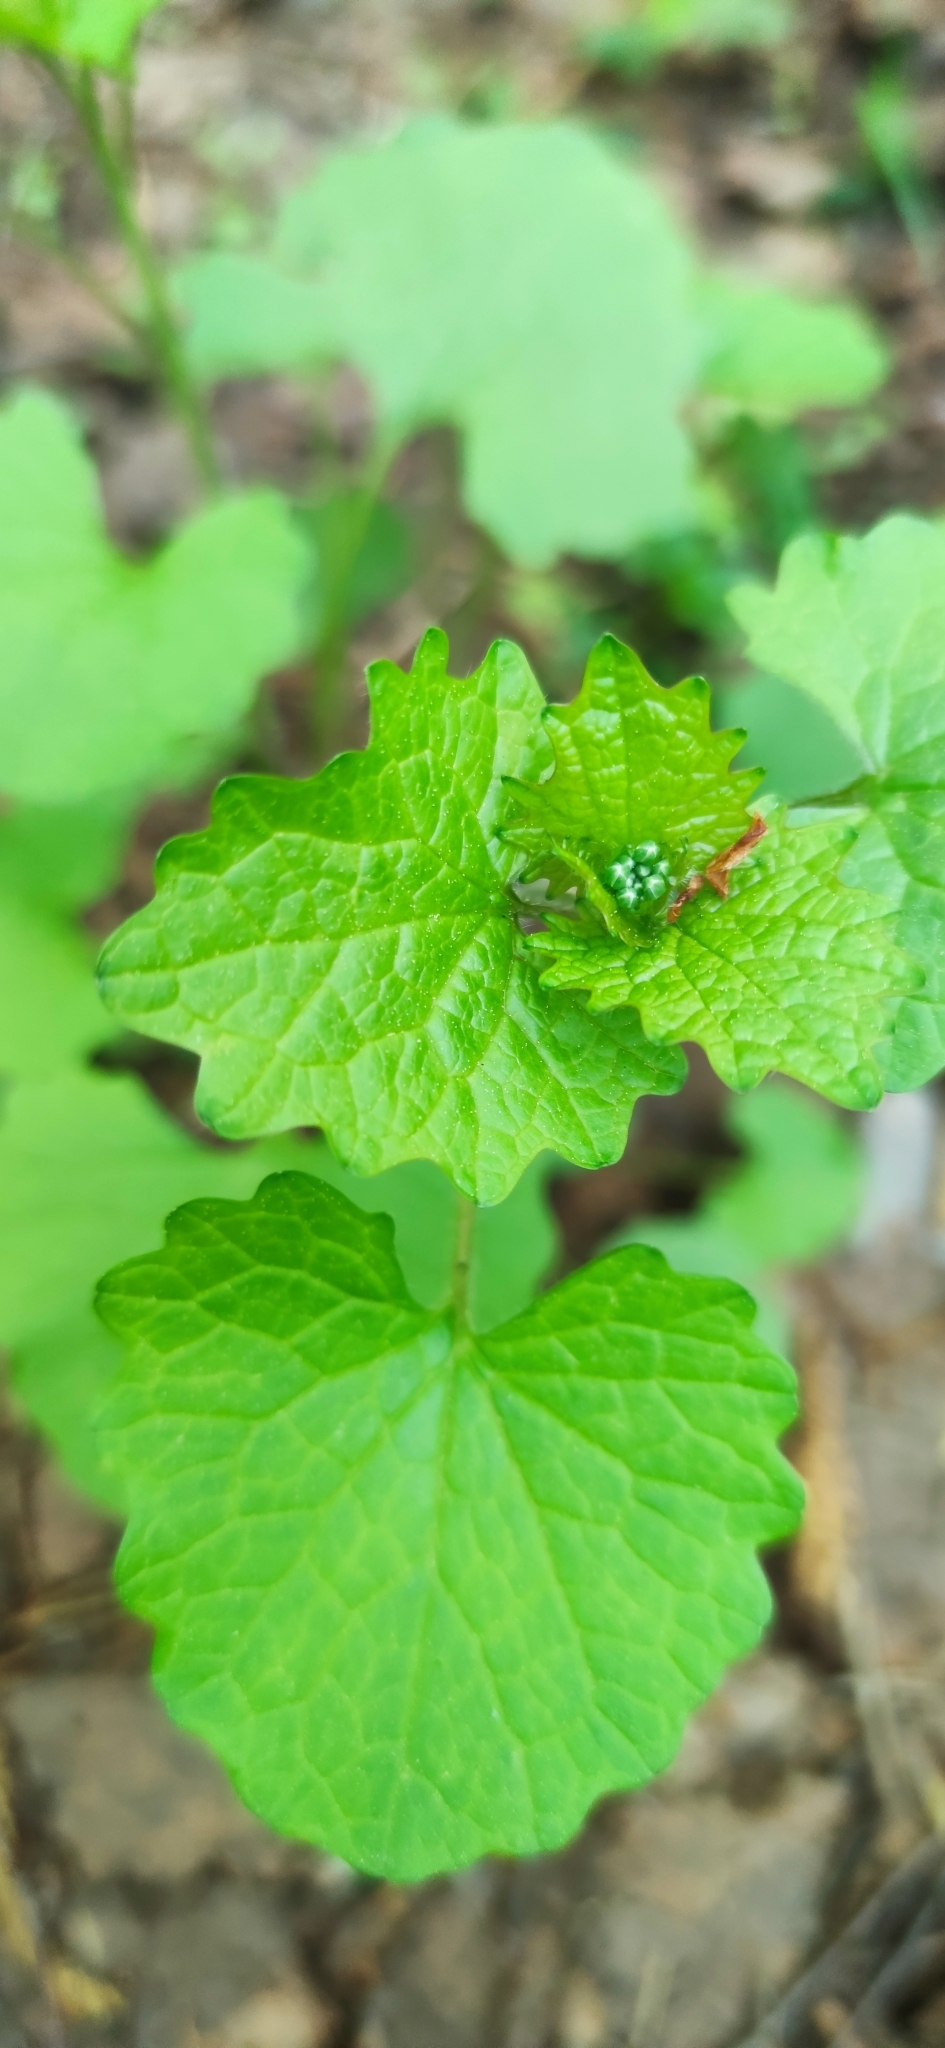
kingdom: Plantae
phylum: Tracheophyta
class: Magnoliopsida
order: Brassicales
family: Brassicaceae
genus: Alliaria
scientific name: Alliaria petiolata
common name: Garlic mustard
